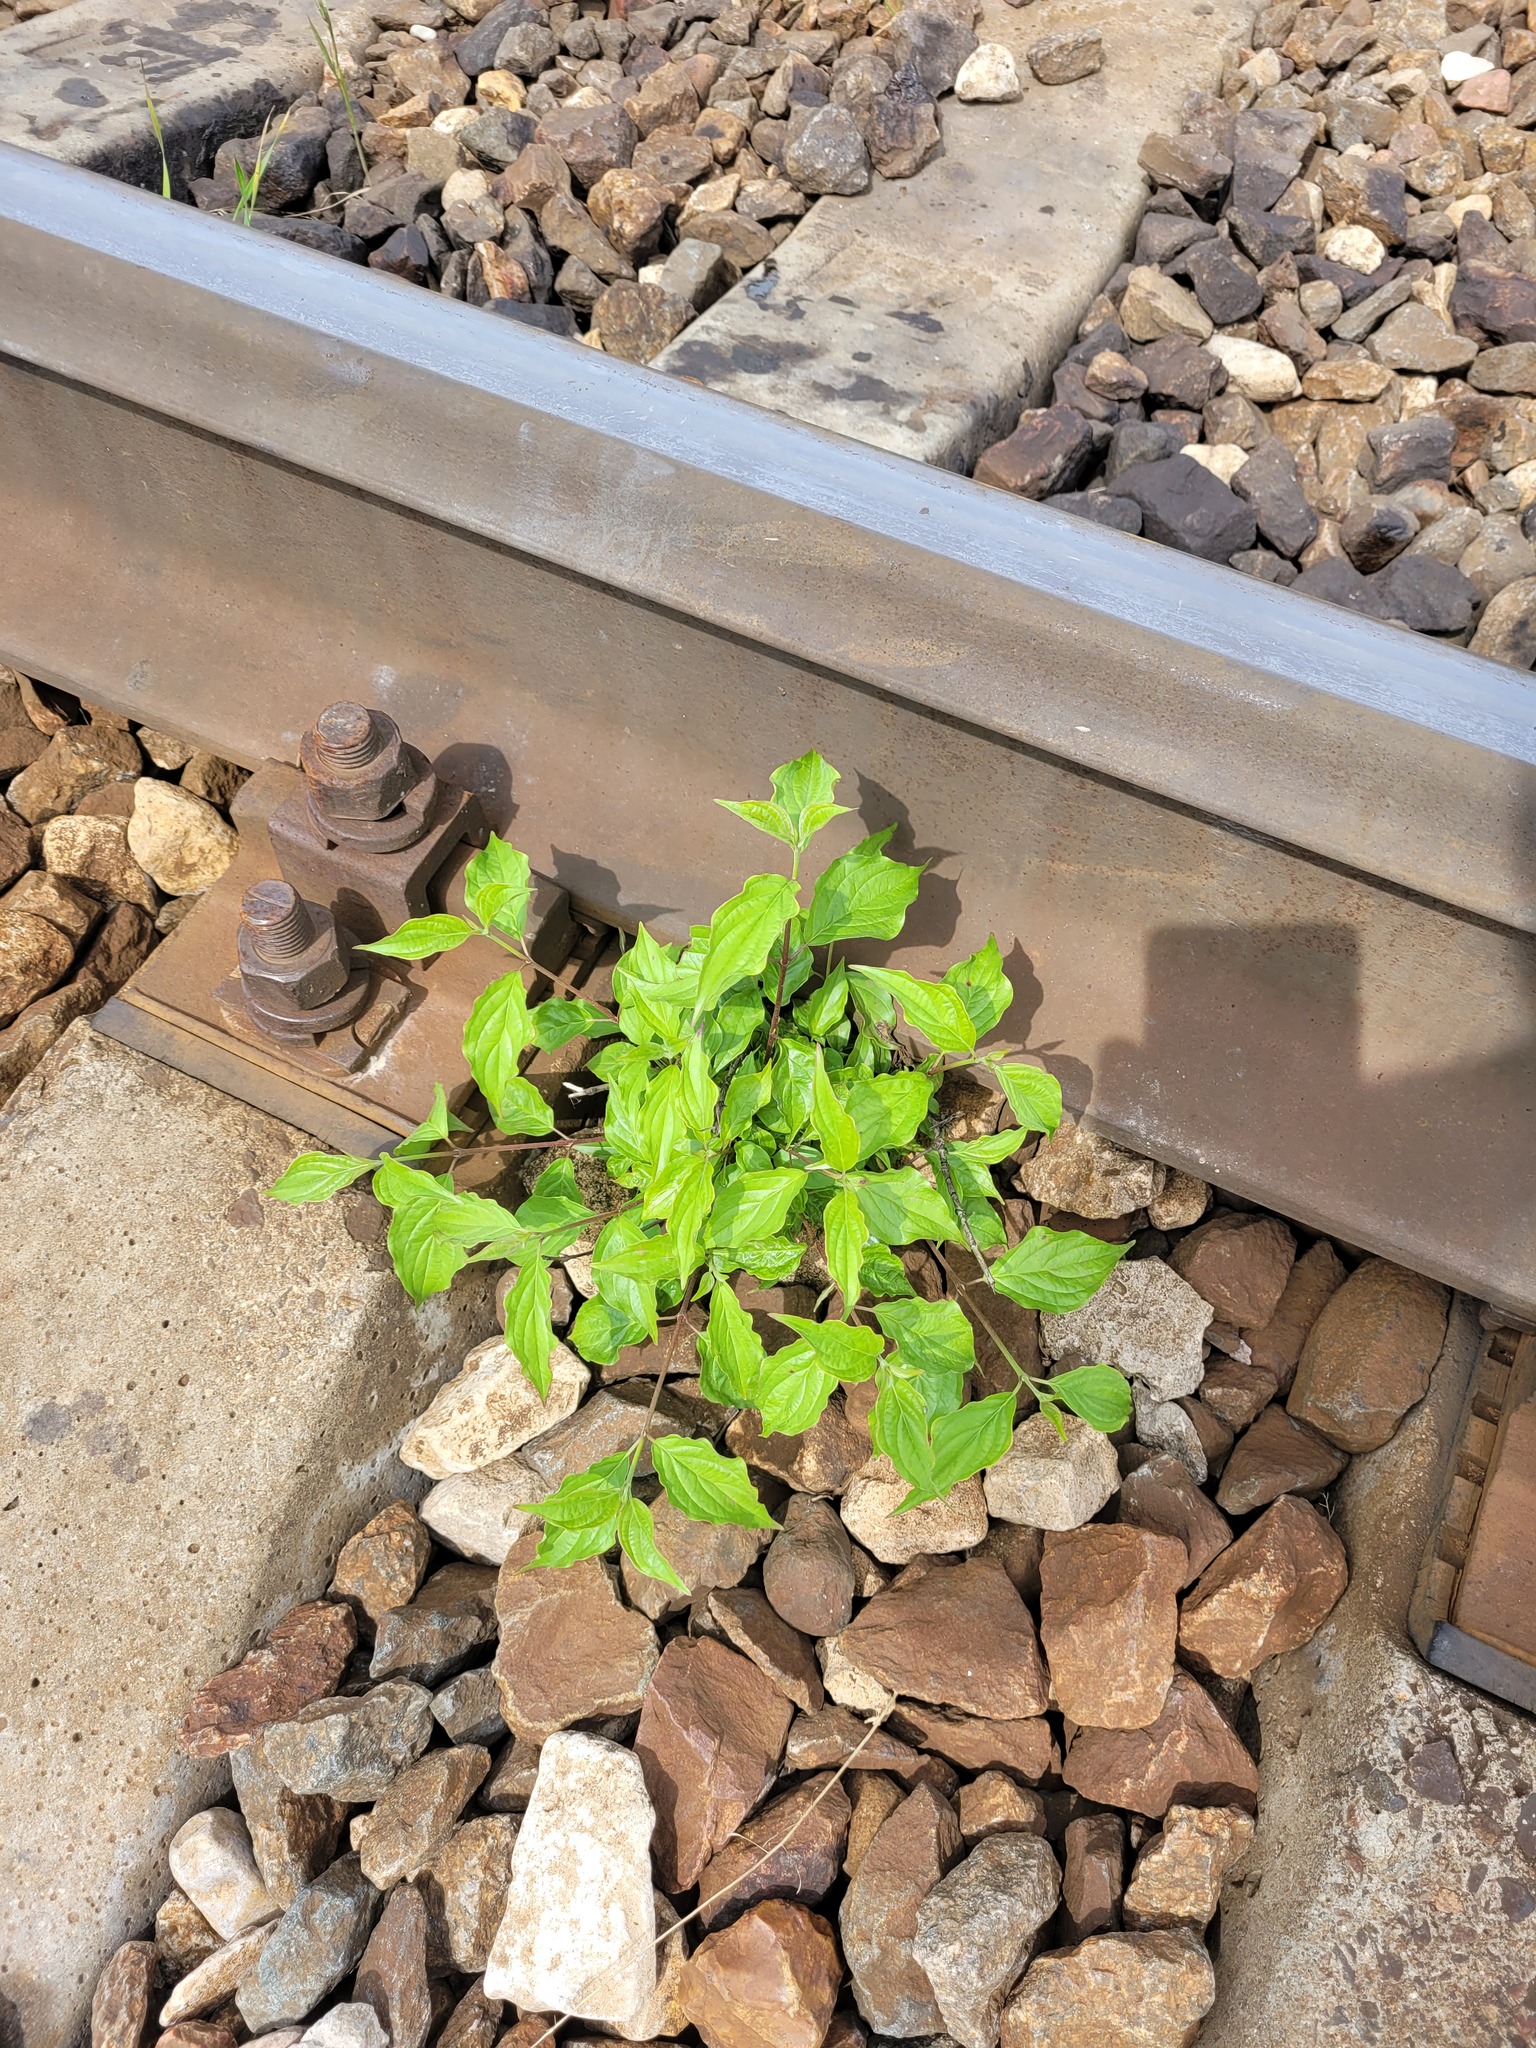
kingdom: Plantae
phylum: Tracheophyta
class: Magnoliopsida
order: Cornales
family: Cornaceae
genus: Cornus
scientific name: Cornus sanguinea
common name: Dogwood
